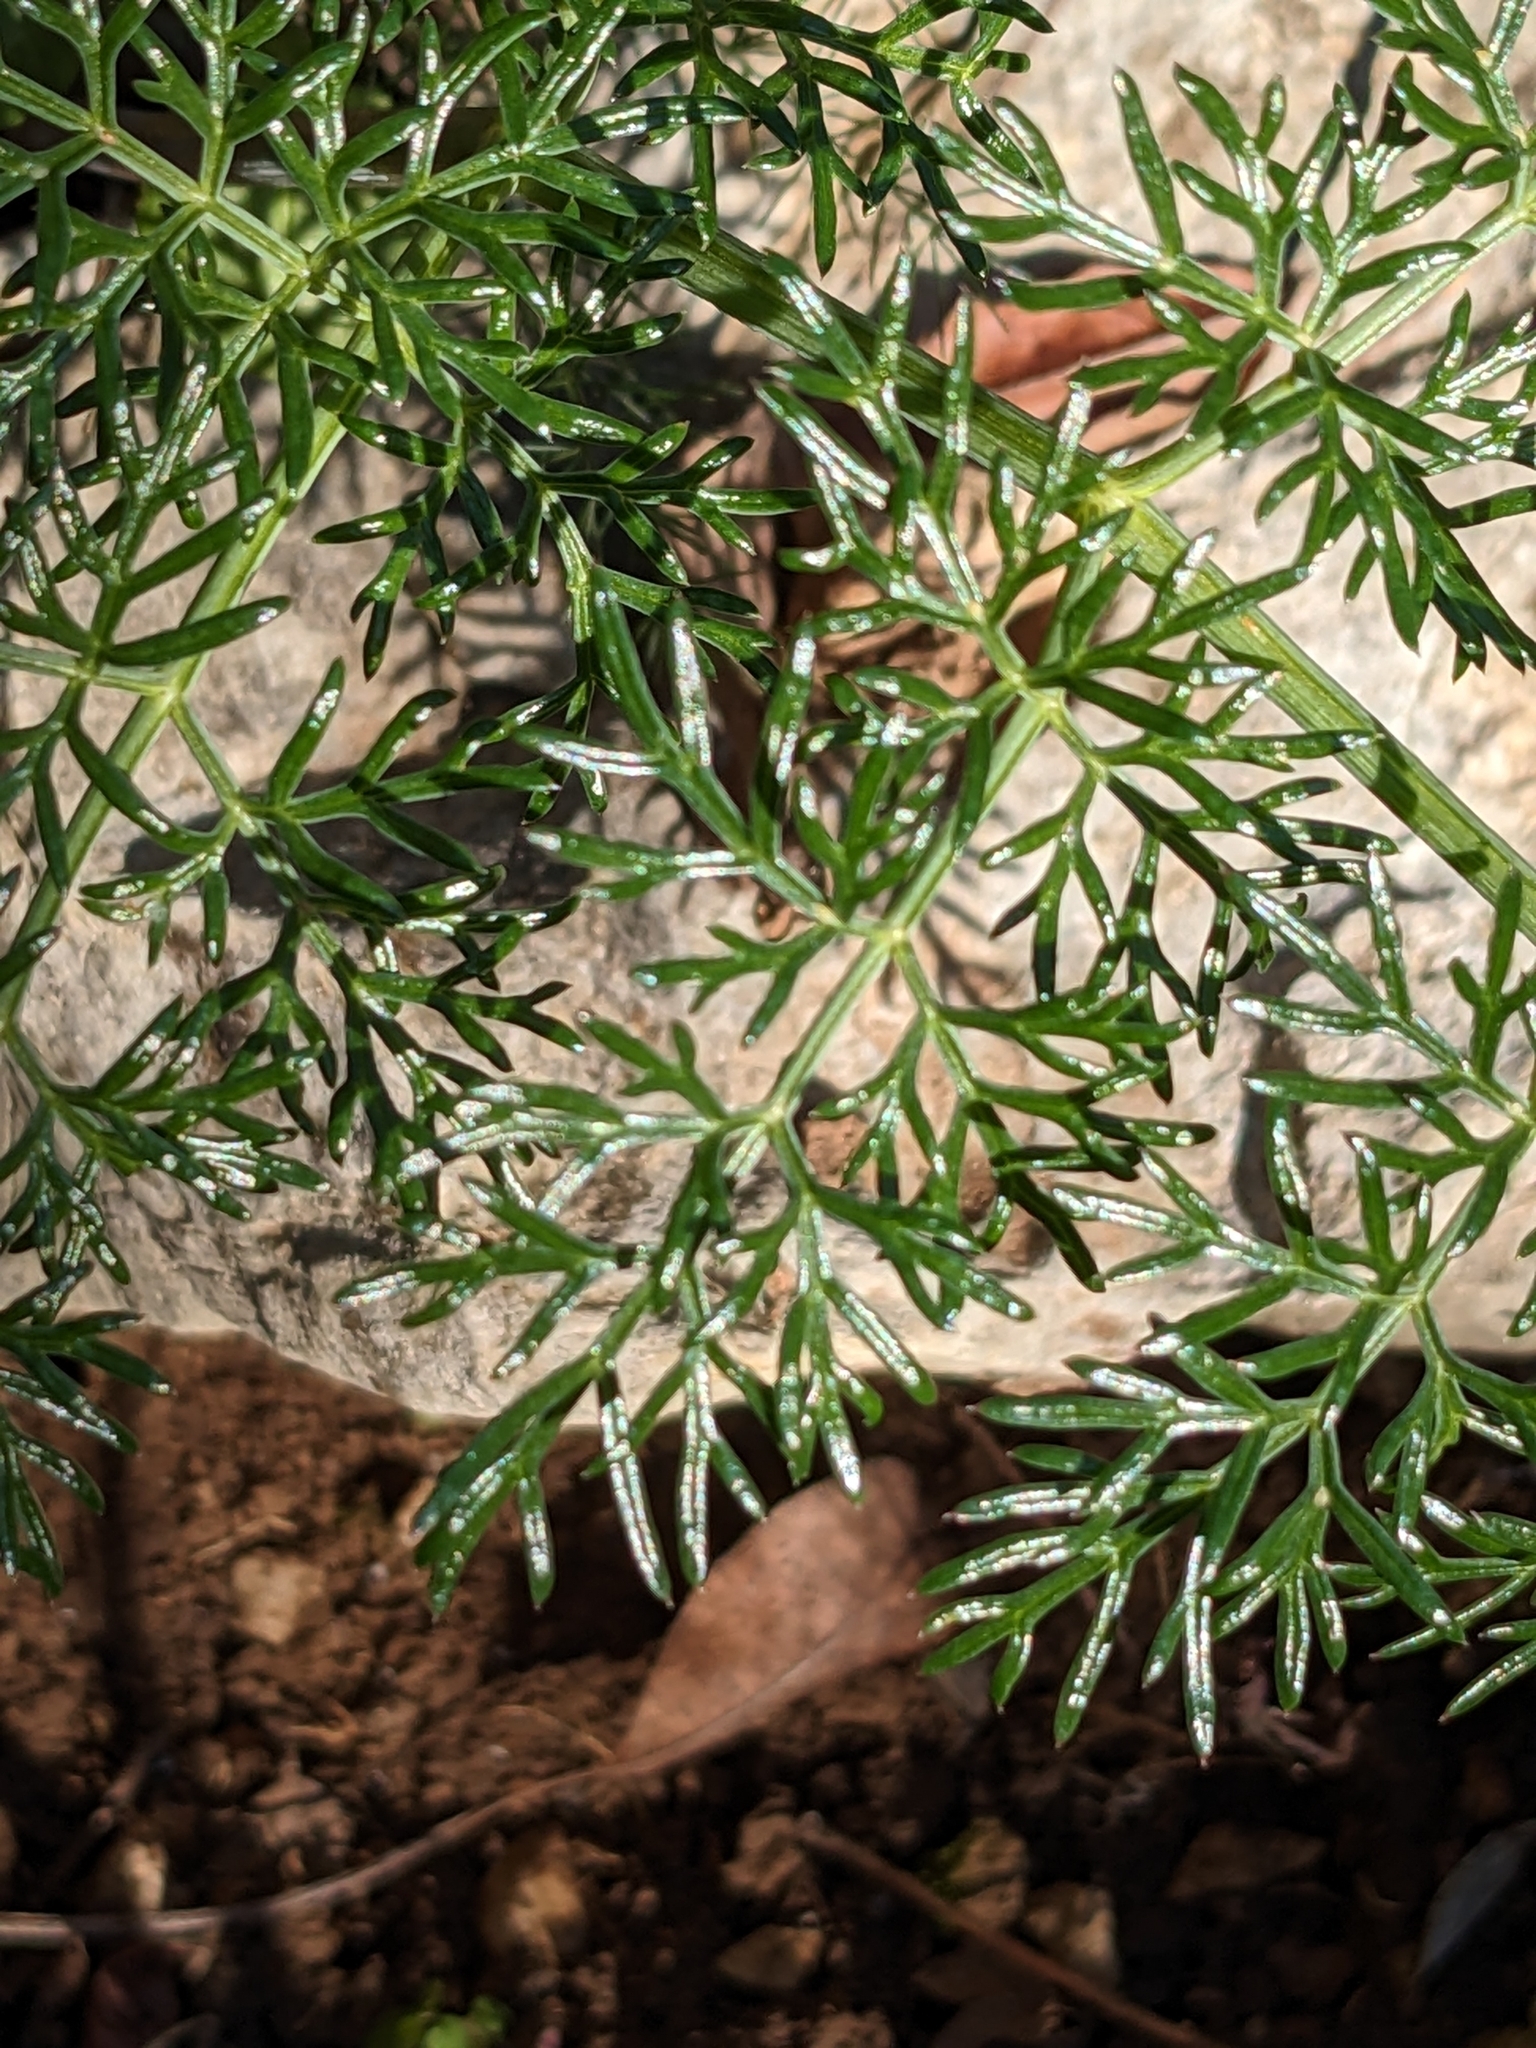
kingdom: Plantae
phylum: Tracheophyta
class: Magnoliopsida
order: Apiales
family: Apiaceae
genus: Ferula
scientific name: Ferula glauca
